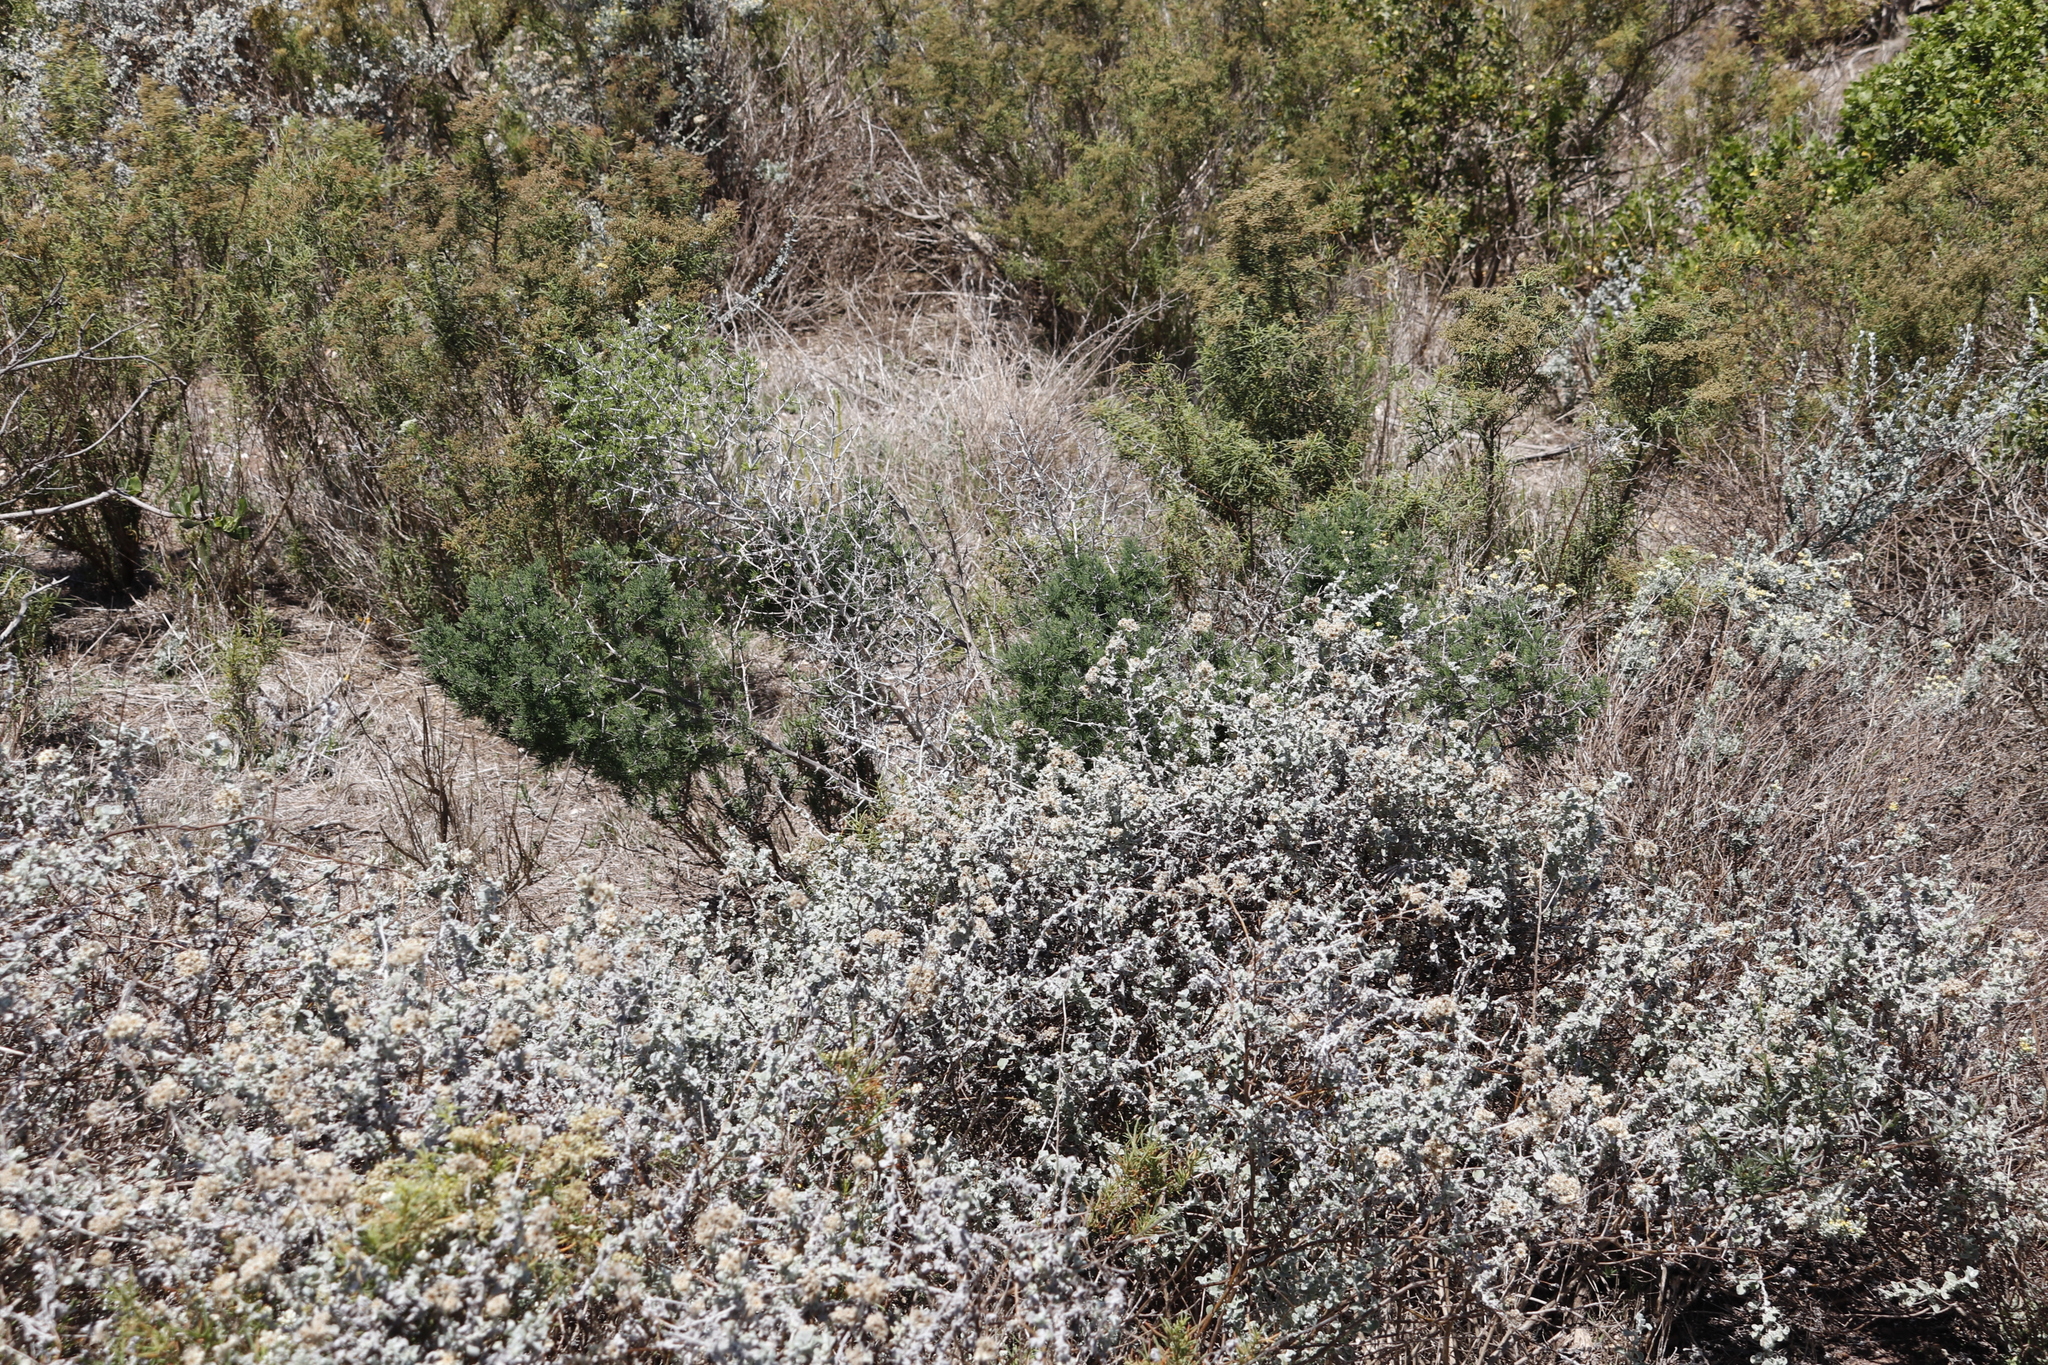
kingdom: Plantae
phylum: Tracheophyta
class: Liliopsida
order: Asparagales
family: Asparagaceae
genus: Asparagus
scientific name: Asparagus mariae
